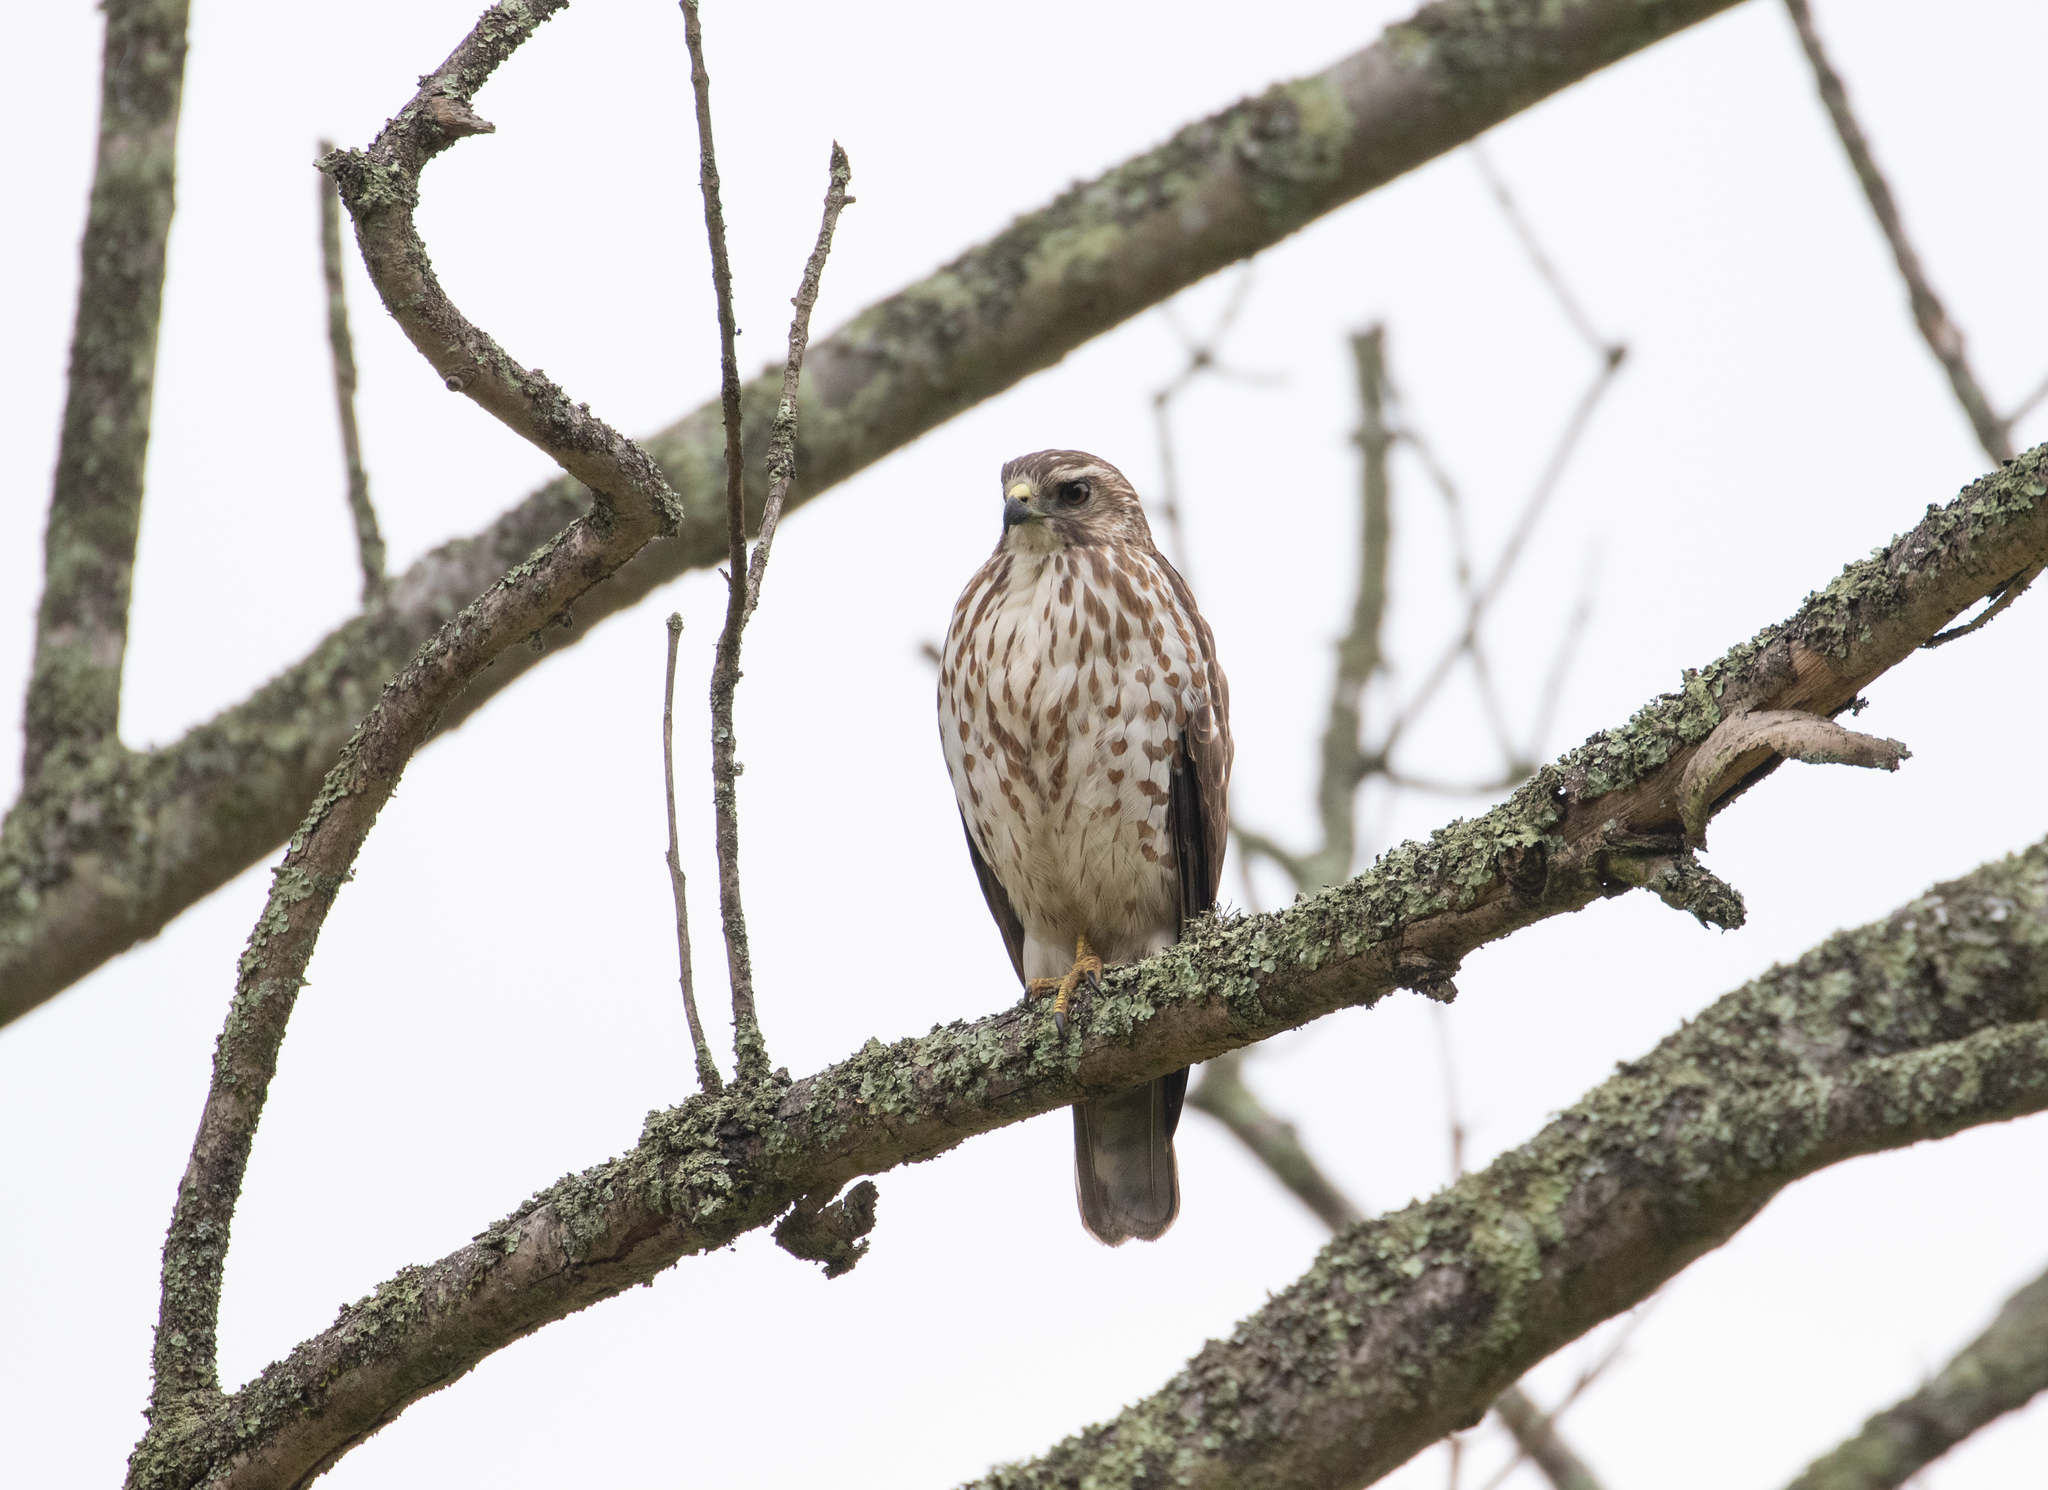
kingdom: Animalia
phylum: Chordata
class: Aves
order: Accipitriformes
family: Accipitridae
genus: Buteo
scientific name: Buteo platypterus
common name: Broad-winged hawk
